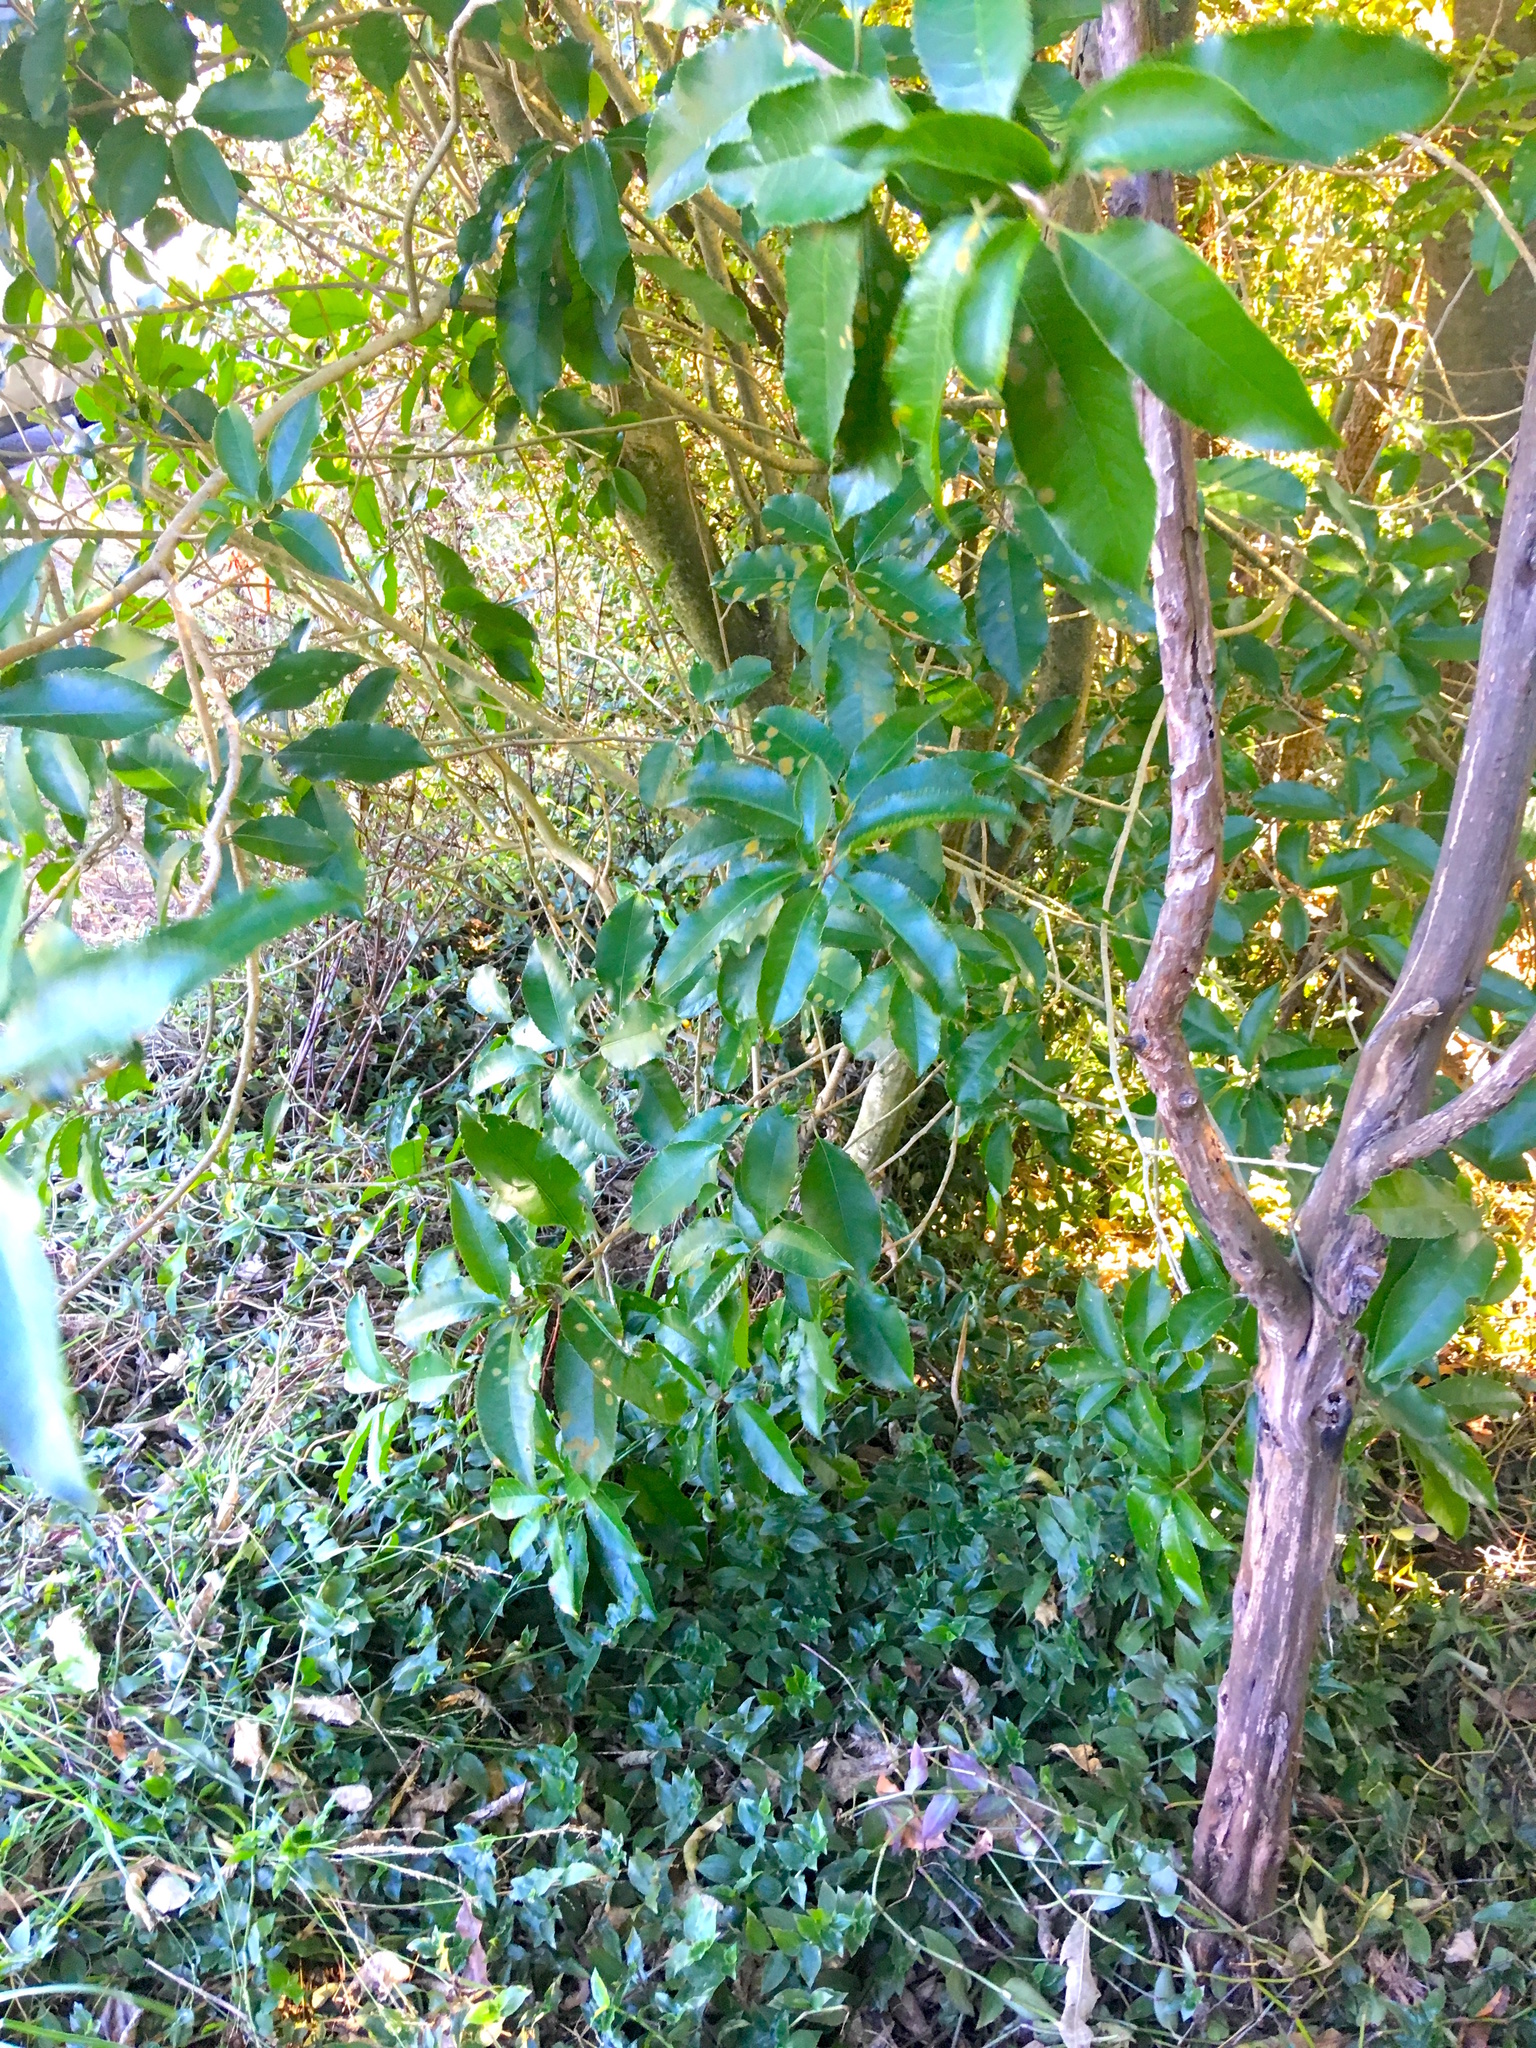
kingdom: Plantae
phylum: Tracheophyta
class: Magnoliopsida
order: Malpighiales
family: Violaceae
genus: Melicytus
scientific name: Melicytus ramiflorus
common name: Mahoe
